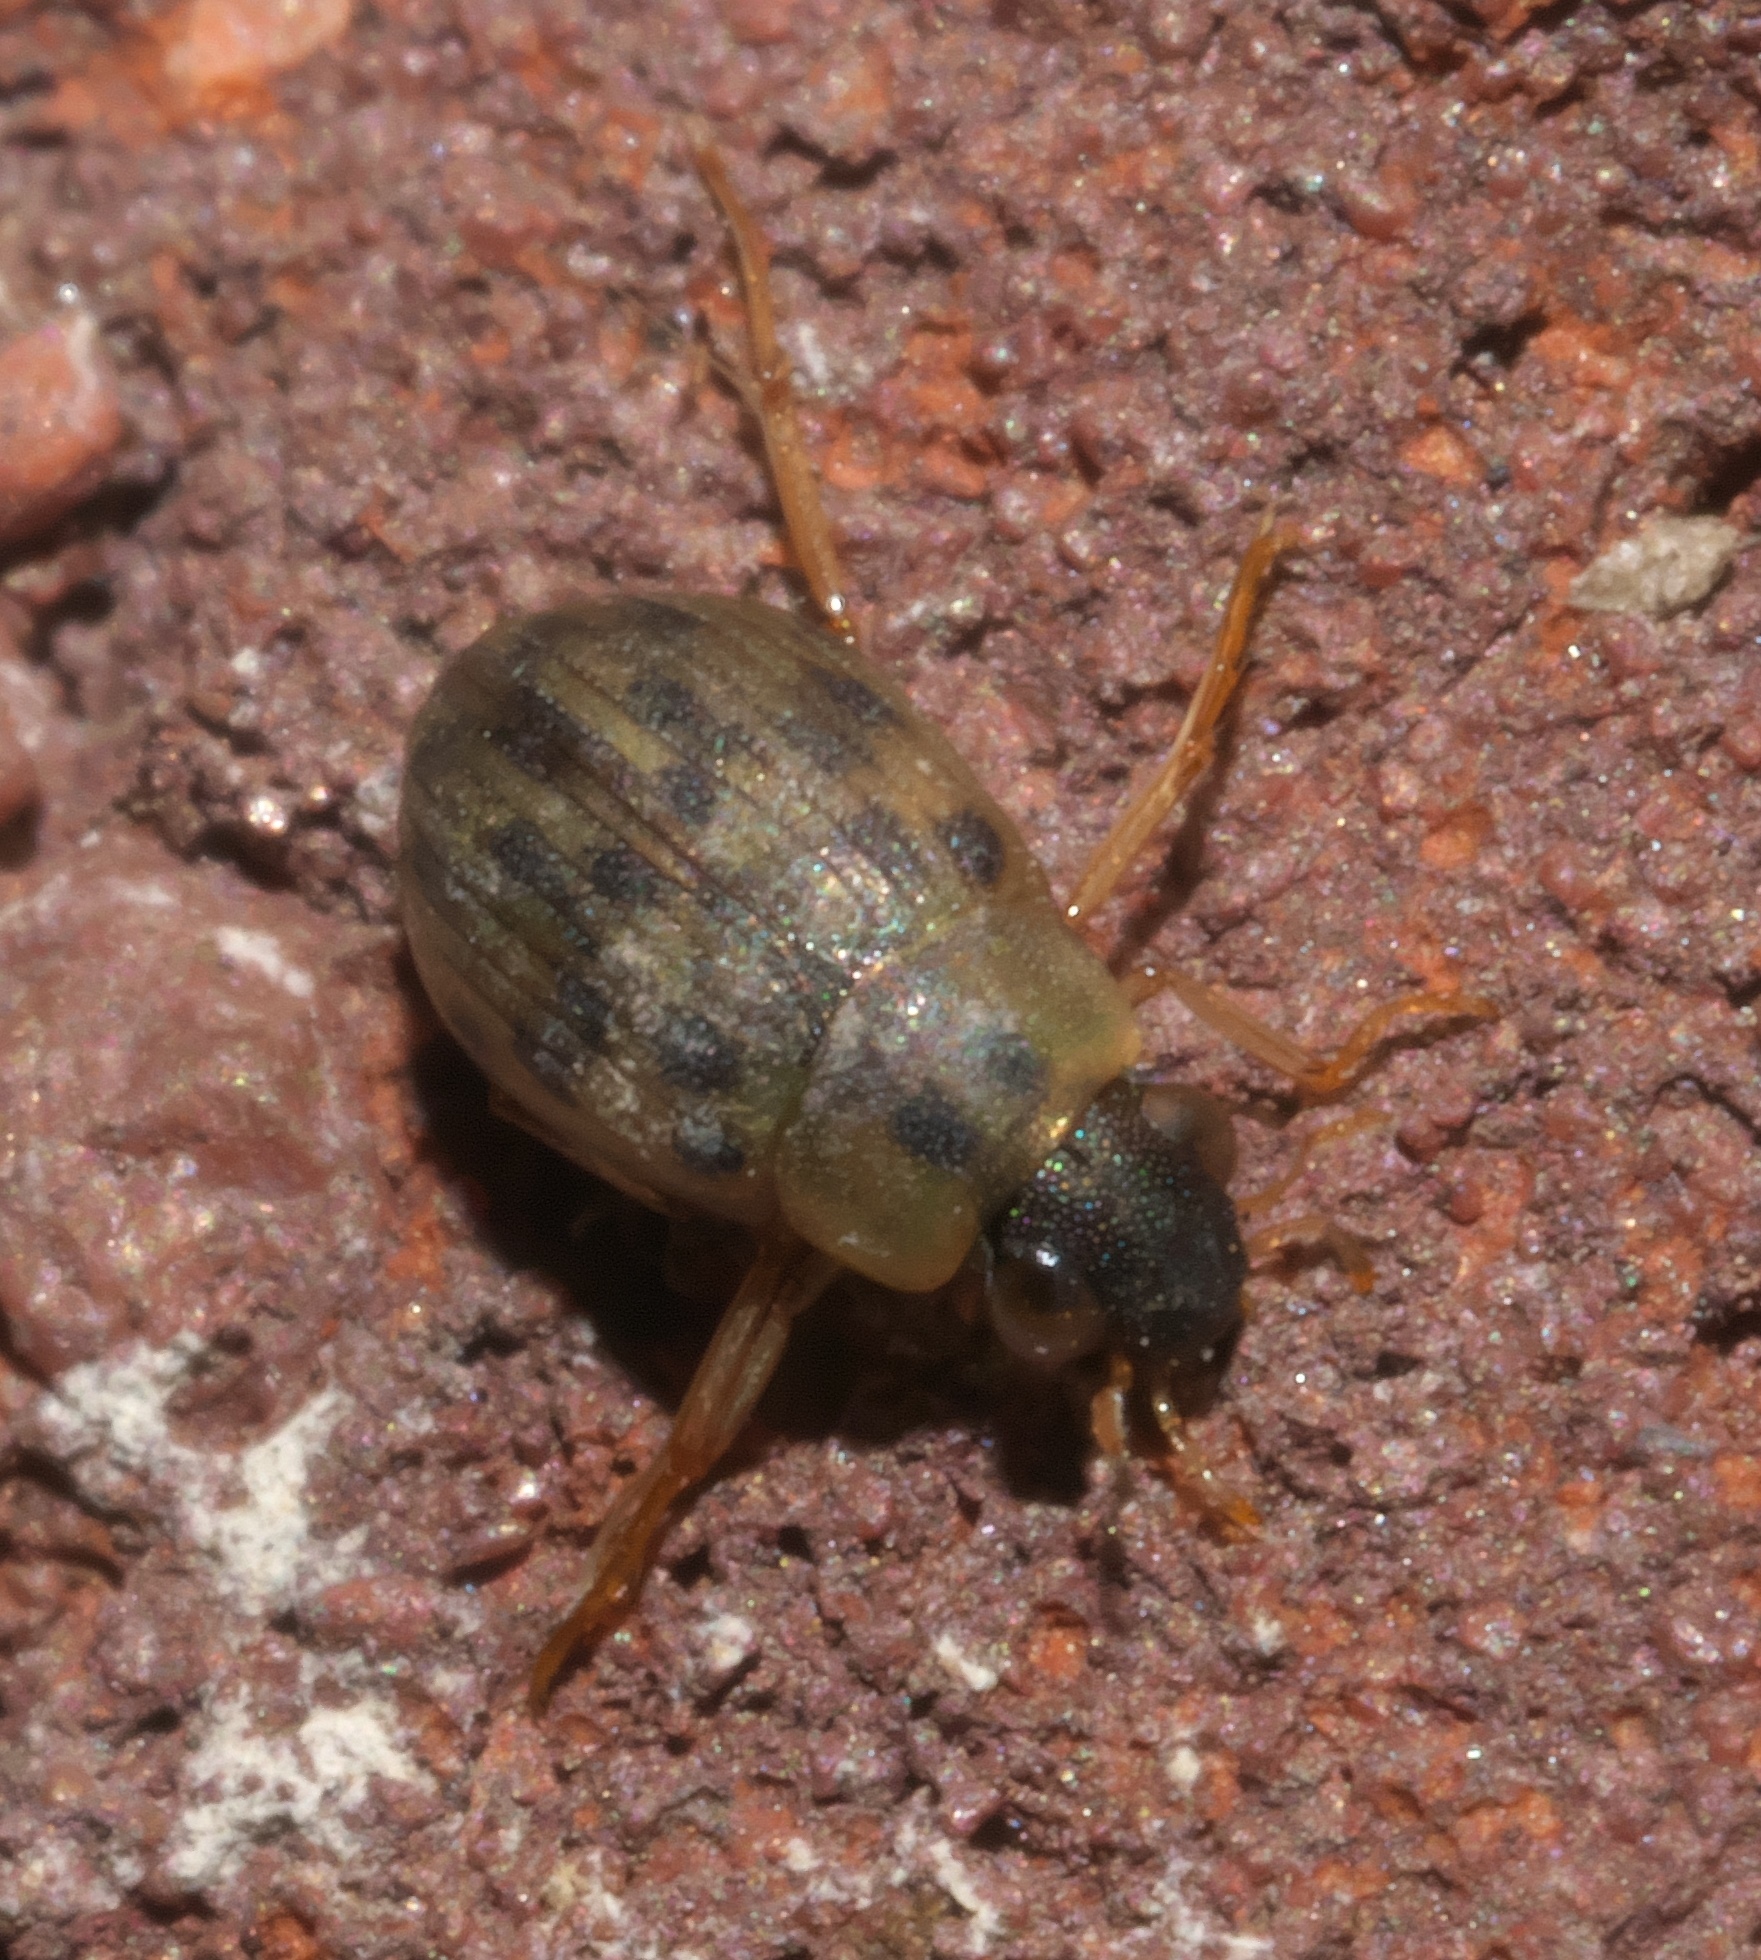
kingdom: Animalia
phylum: Arthropoda
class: Insecta
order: Coleoptera
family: Hydrophilidae
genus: Berosus
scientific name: Berosus pantherinus
